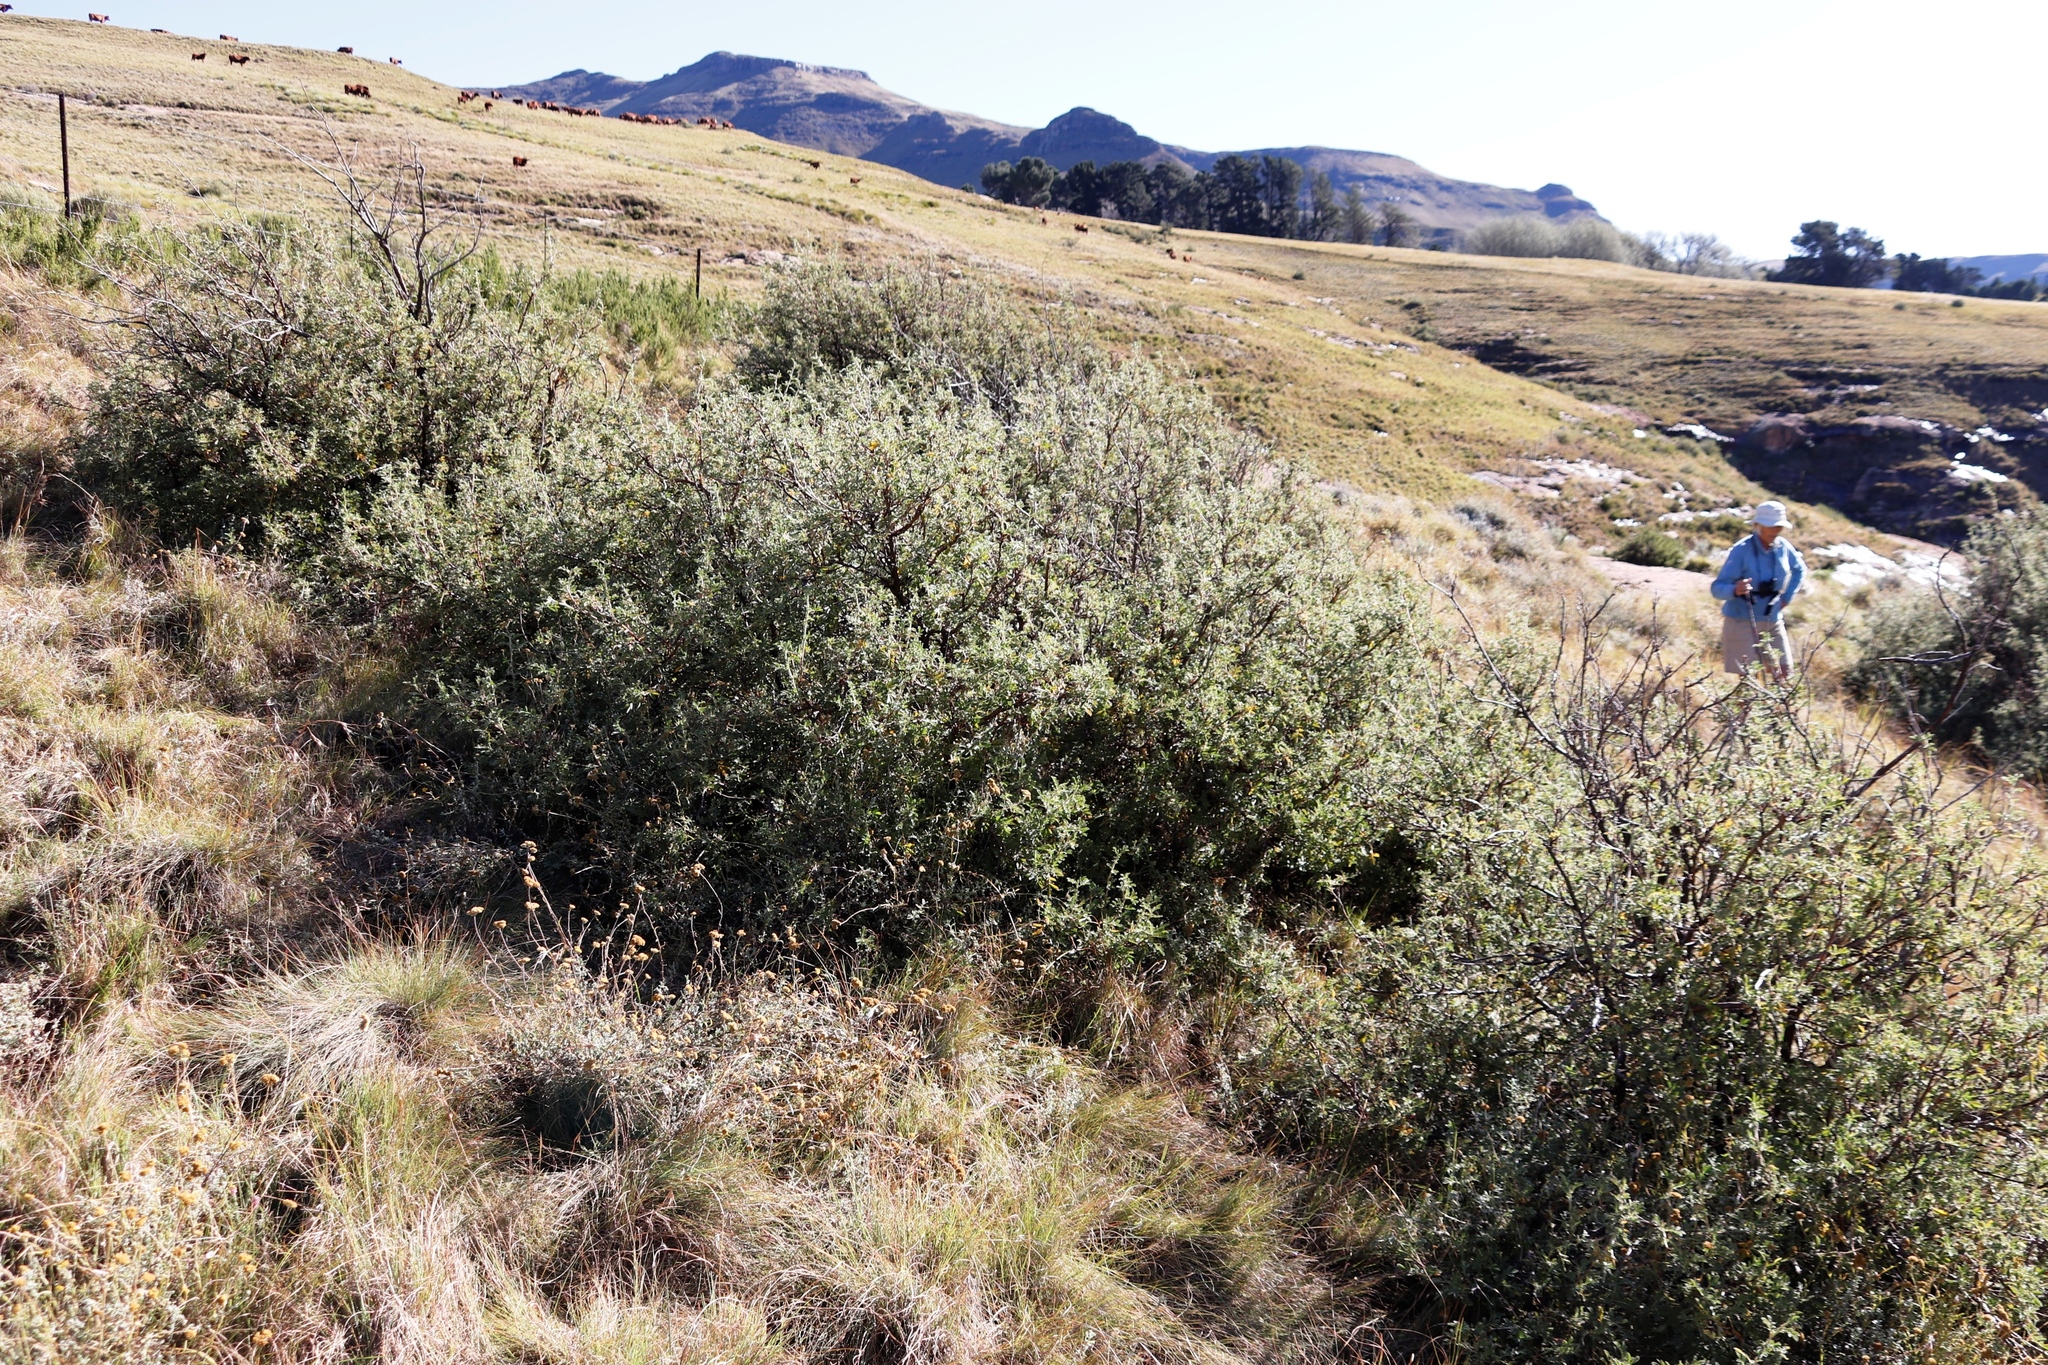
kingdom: Plantae
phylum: Tracheophyta
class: Magnoliopsida
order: Rosales
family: Rosaceae
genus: Leucosidea
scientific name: Leucosidea sericea
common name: Oldwood
